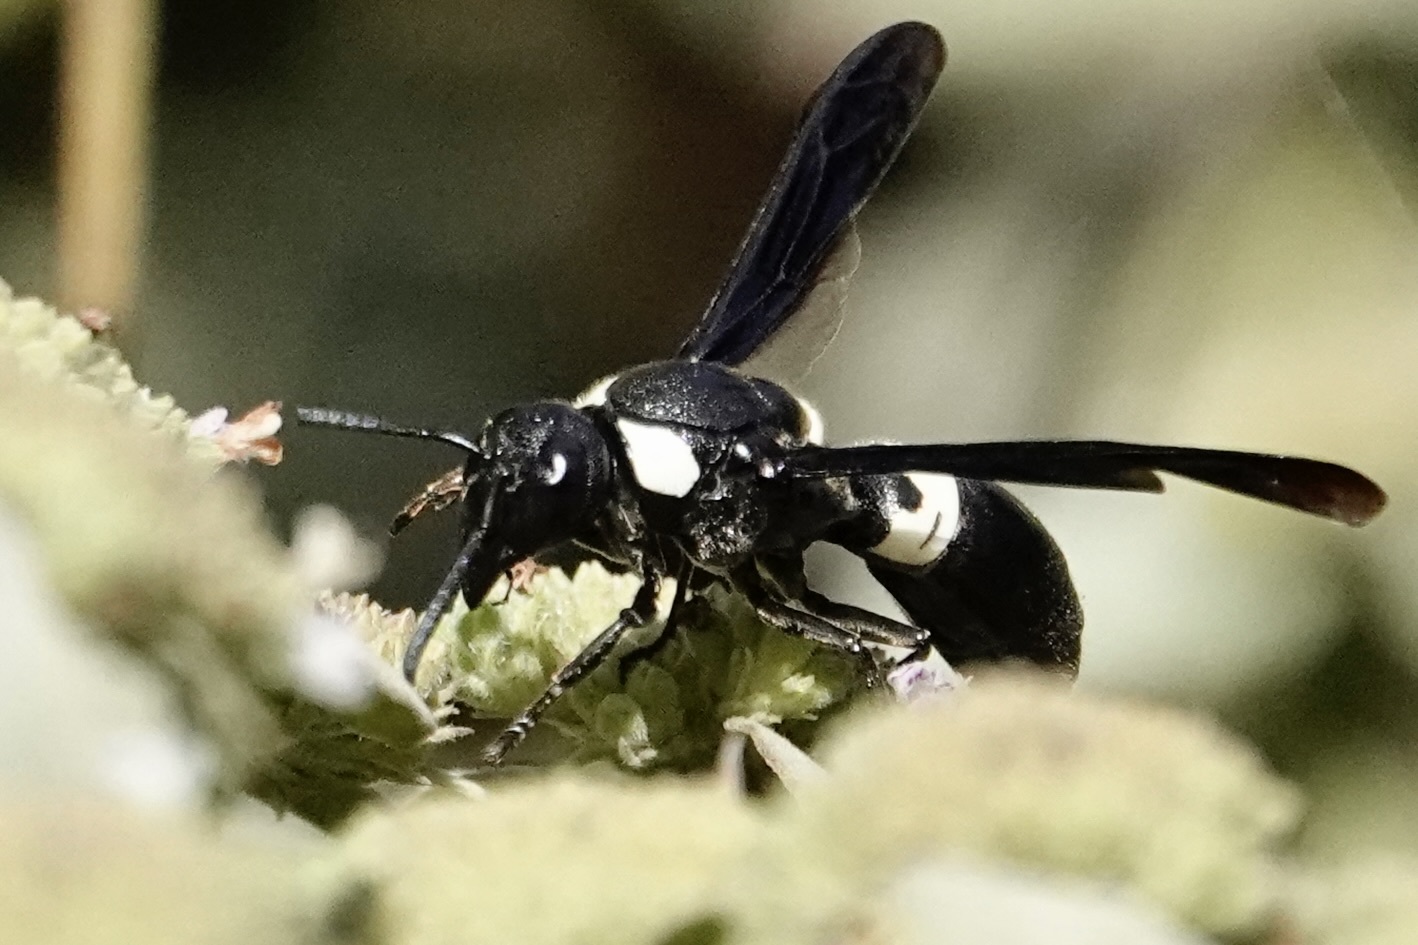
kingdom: Animalia
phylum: Arthropoda
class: Insecta
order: Hymenoptera
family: Eumenidae
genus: Monobia
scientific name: Monobia quadridens
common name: Four-toothed mason wasp
